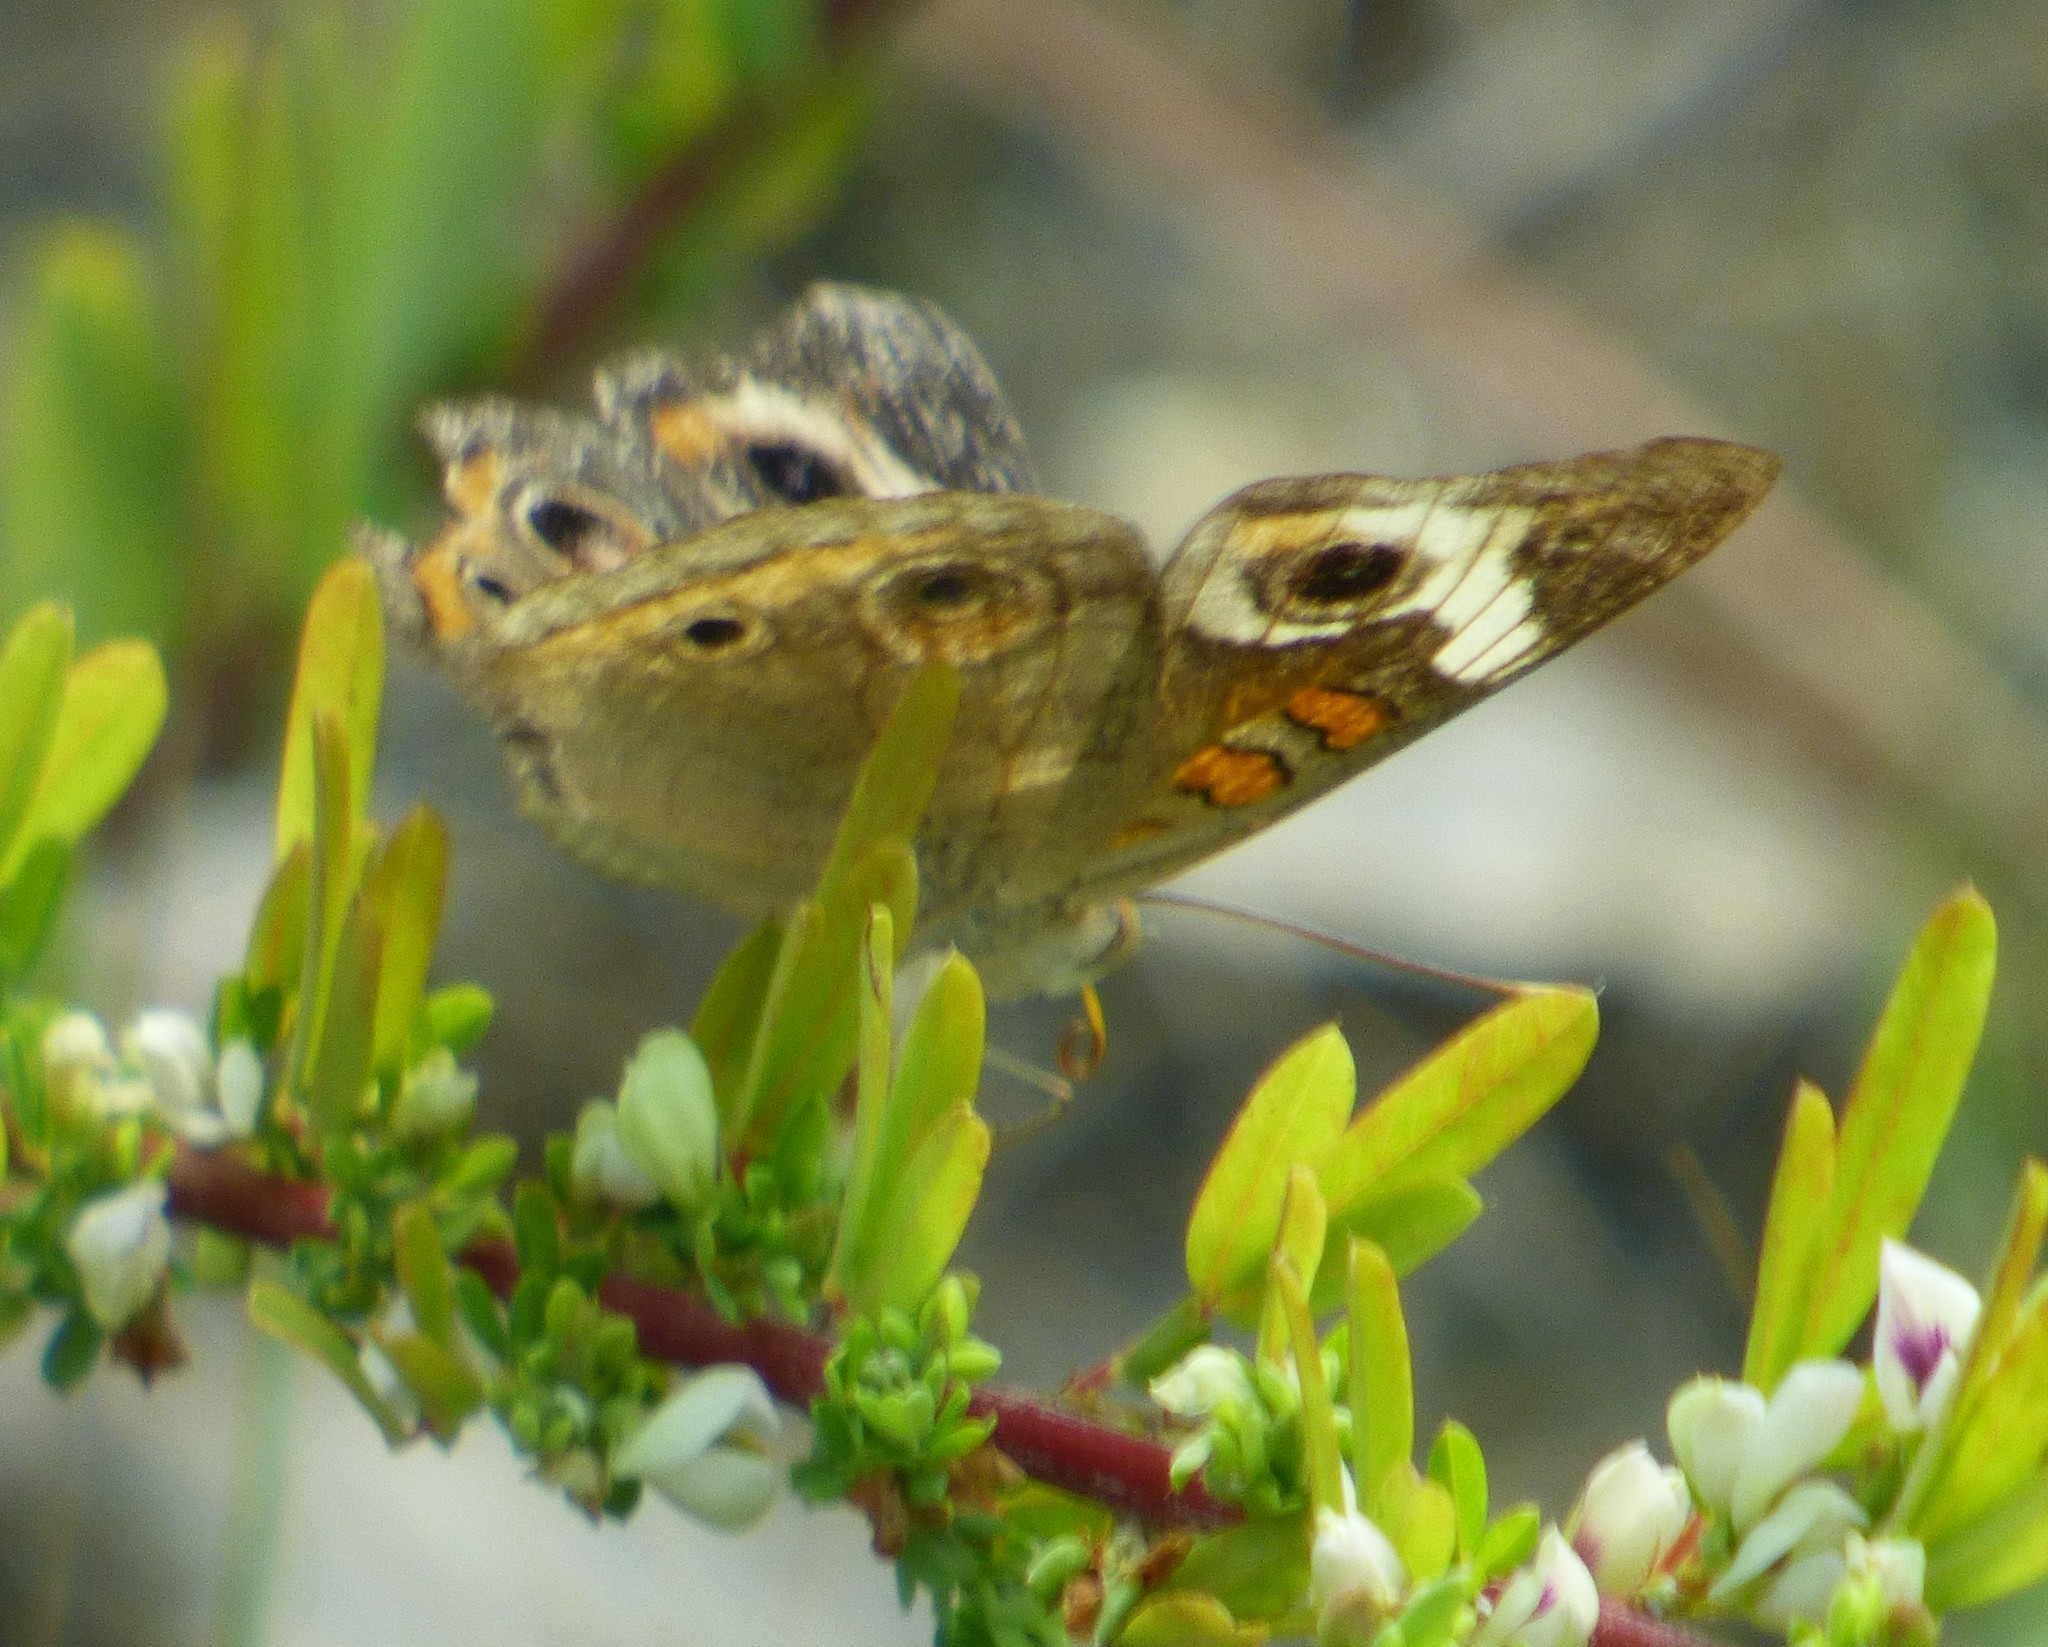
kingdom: Animalia
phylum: Arthropoda
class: Insecta
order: Lepidoptera
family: Nymphalidae
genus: Junonia
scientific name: Junonia coenia
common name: Common buckeye
